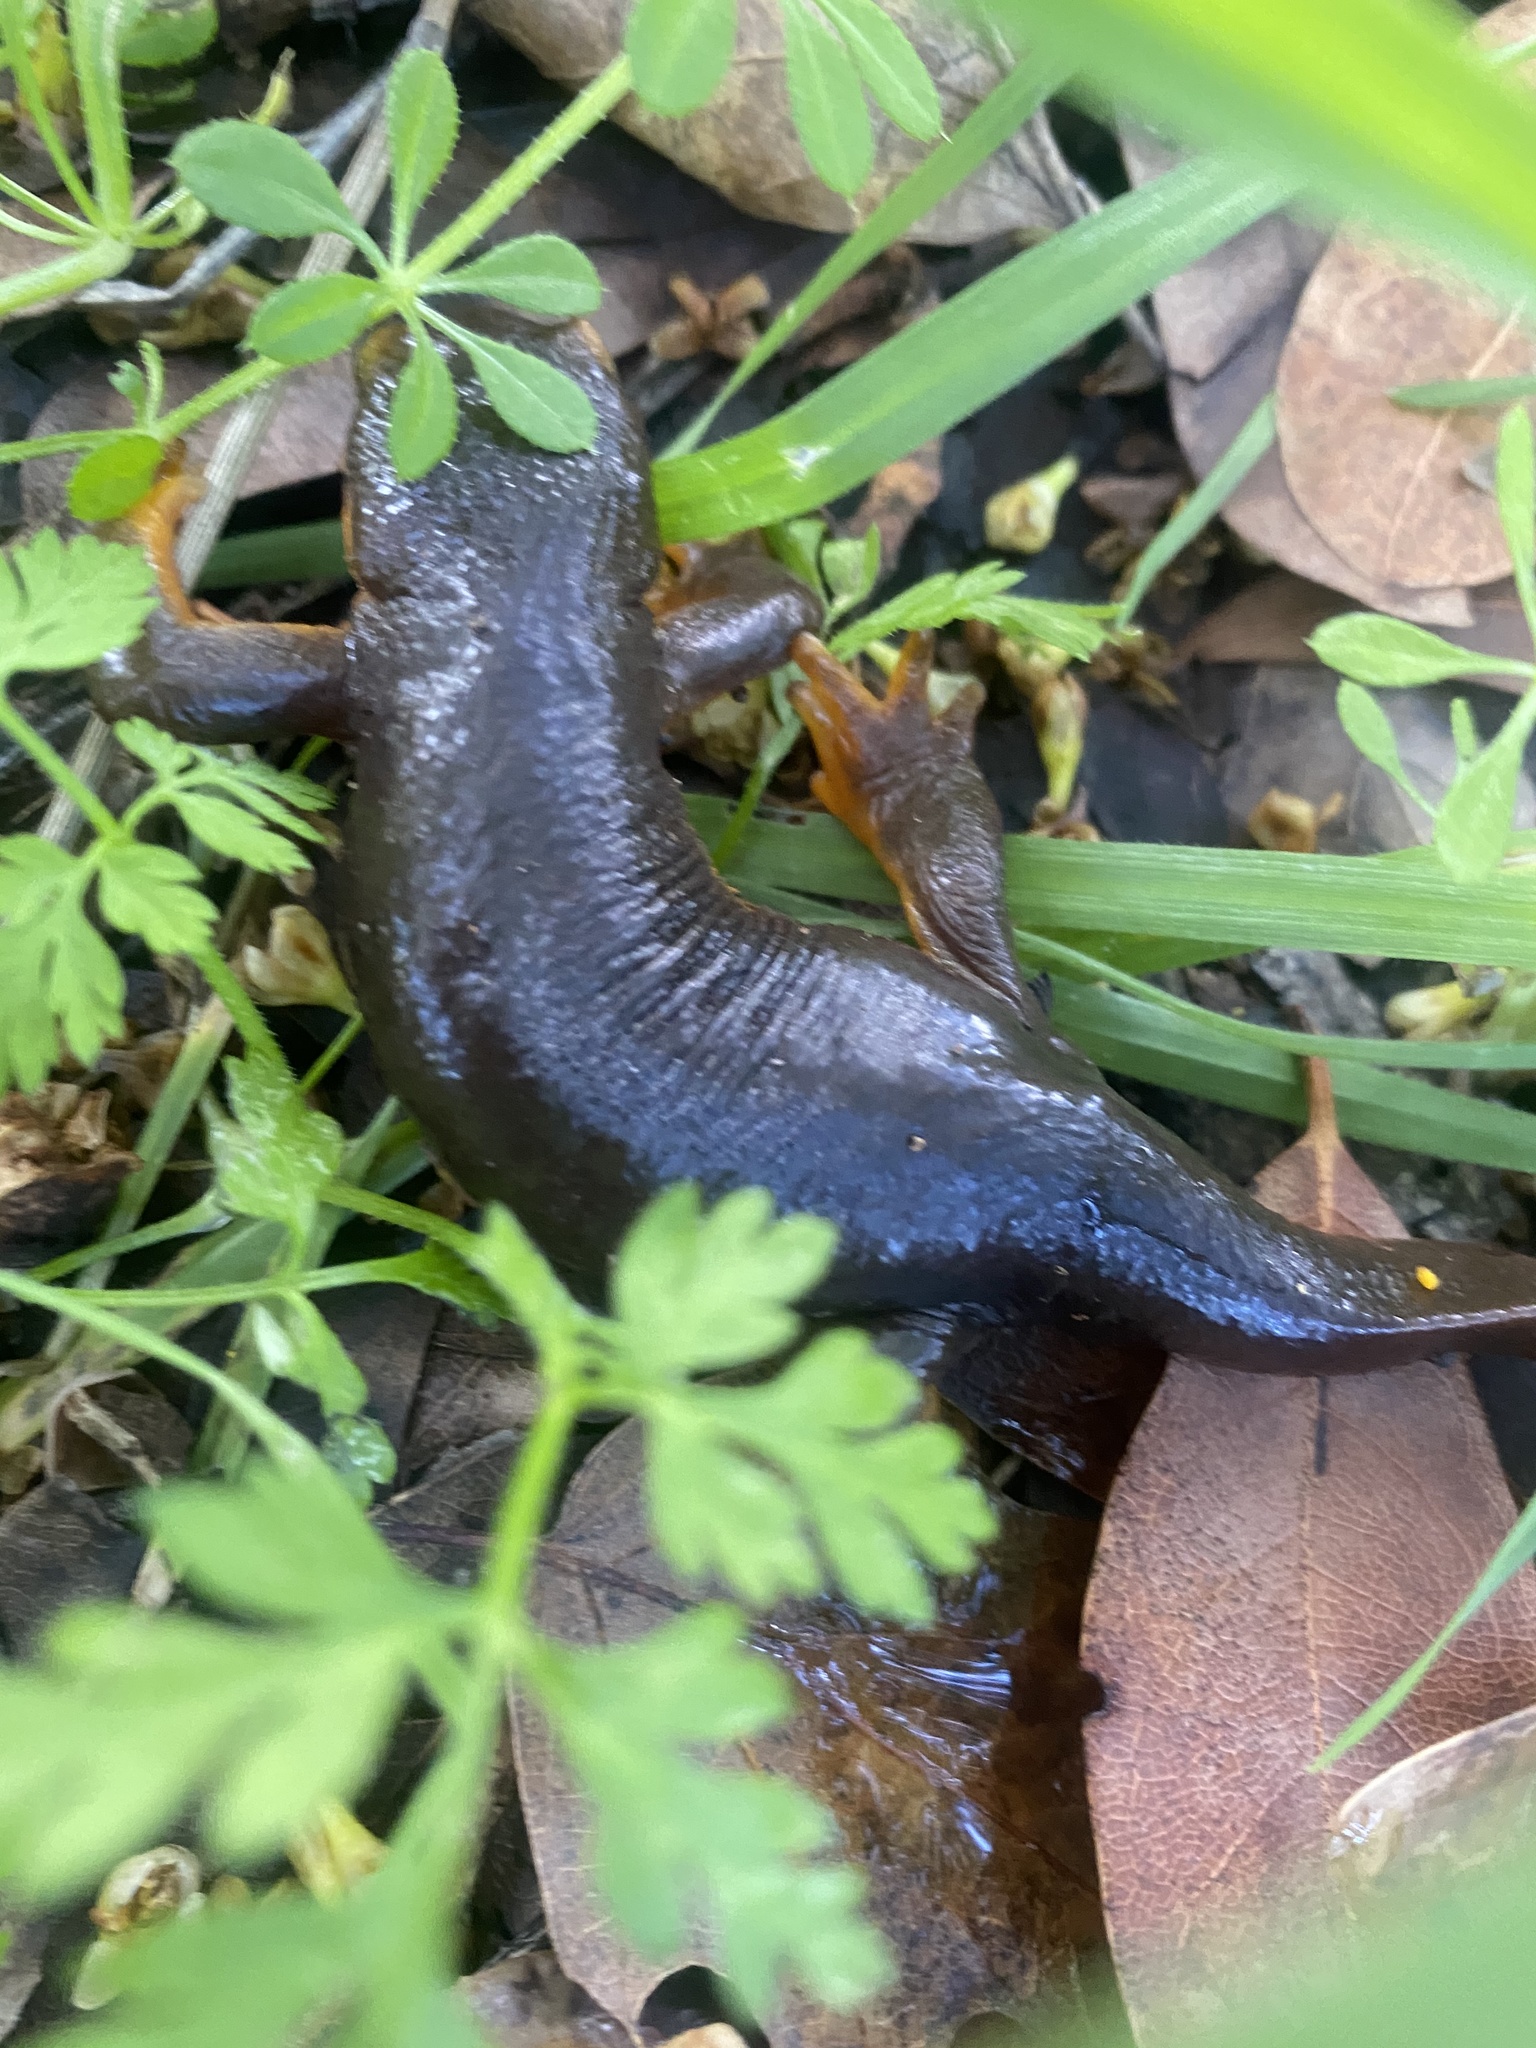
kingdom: Animalia
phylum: Chordata
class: Amphibia
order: Caudata
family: Salamandridae
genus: Taricha
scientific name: Taricha torosa
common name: California newt
